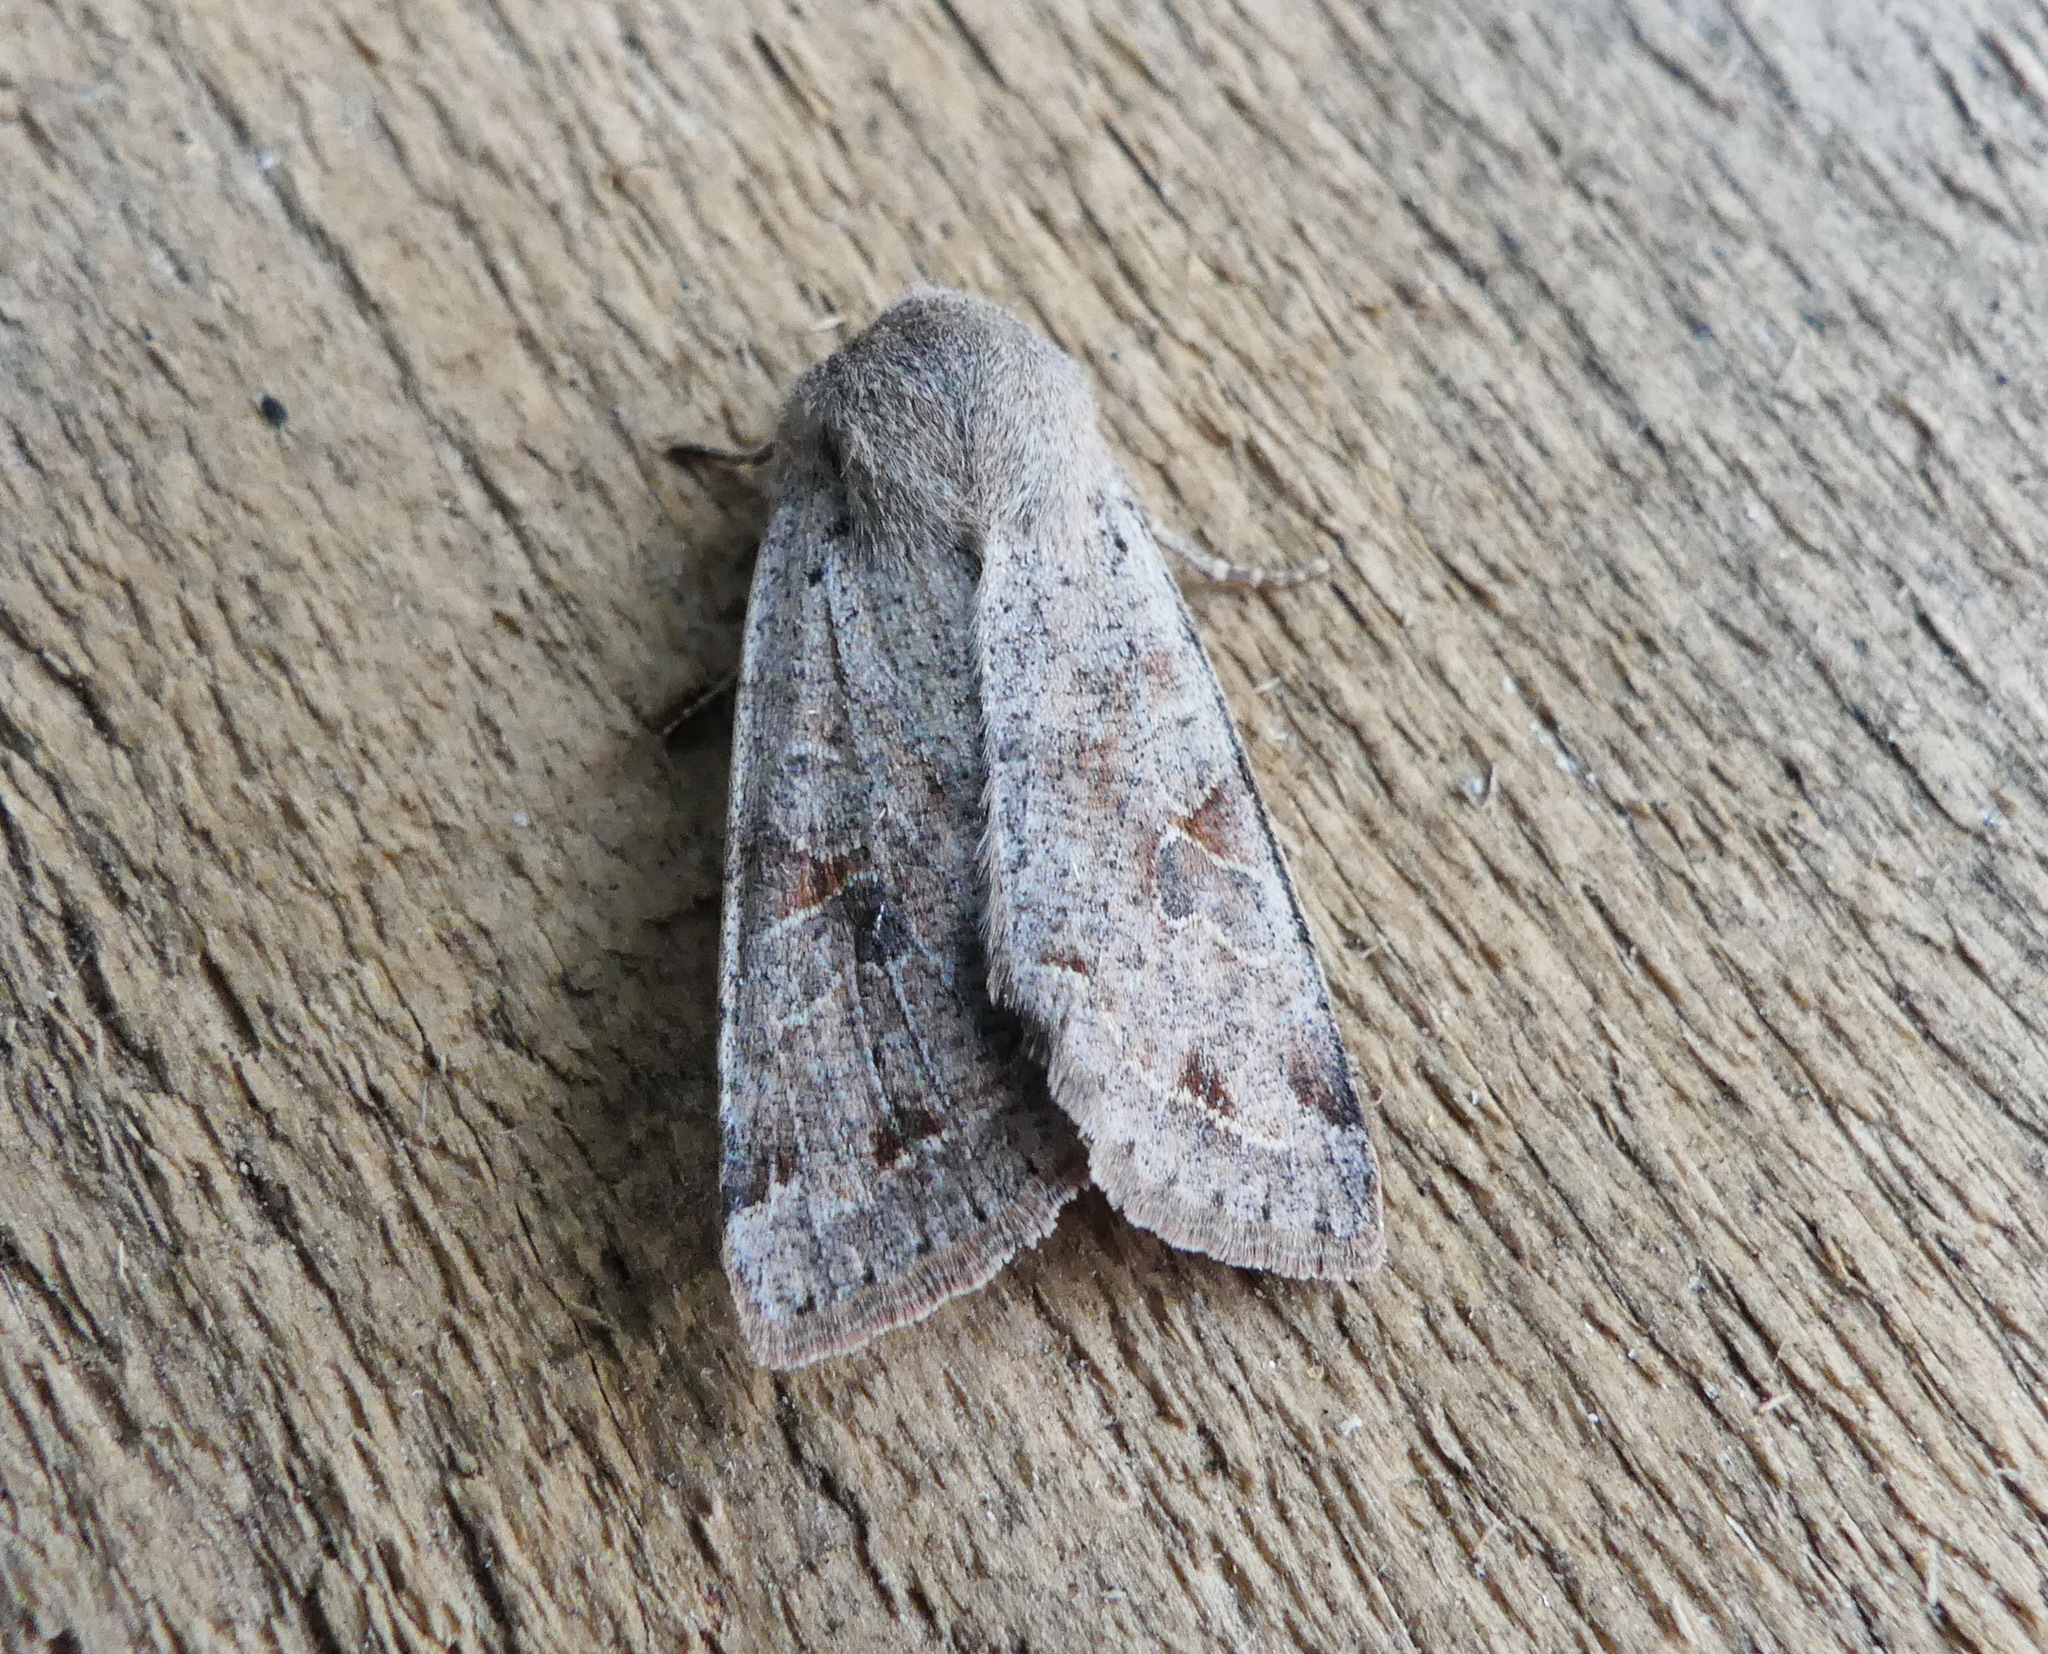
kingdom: Animalia
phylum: Arthropoda
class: Insecta
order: Lepidoptera
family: Noctuidae
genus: Orthosia
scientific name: Orthosia hibisci
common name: Green fruitworm
